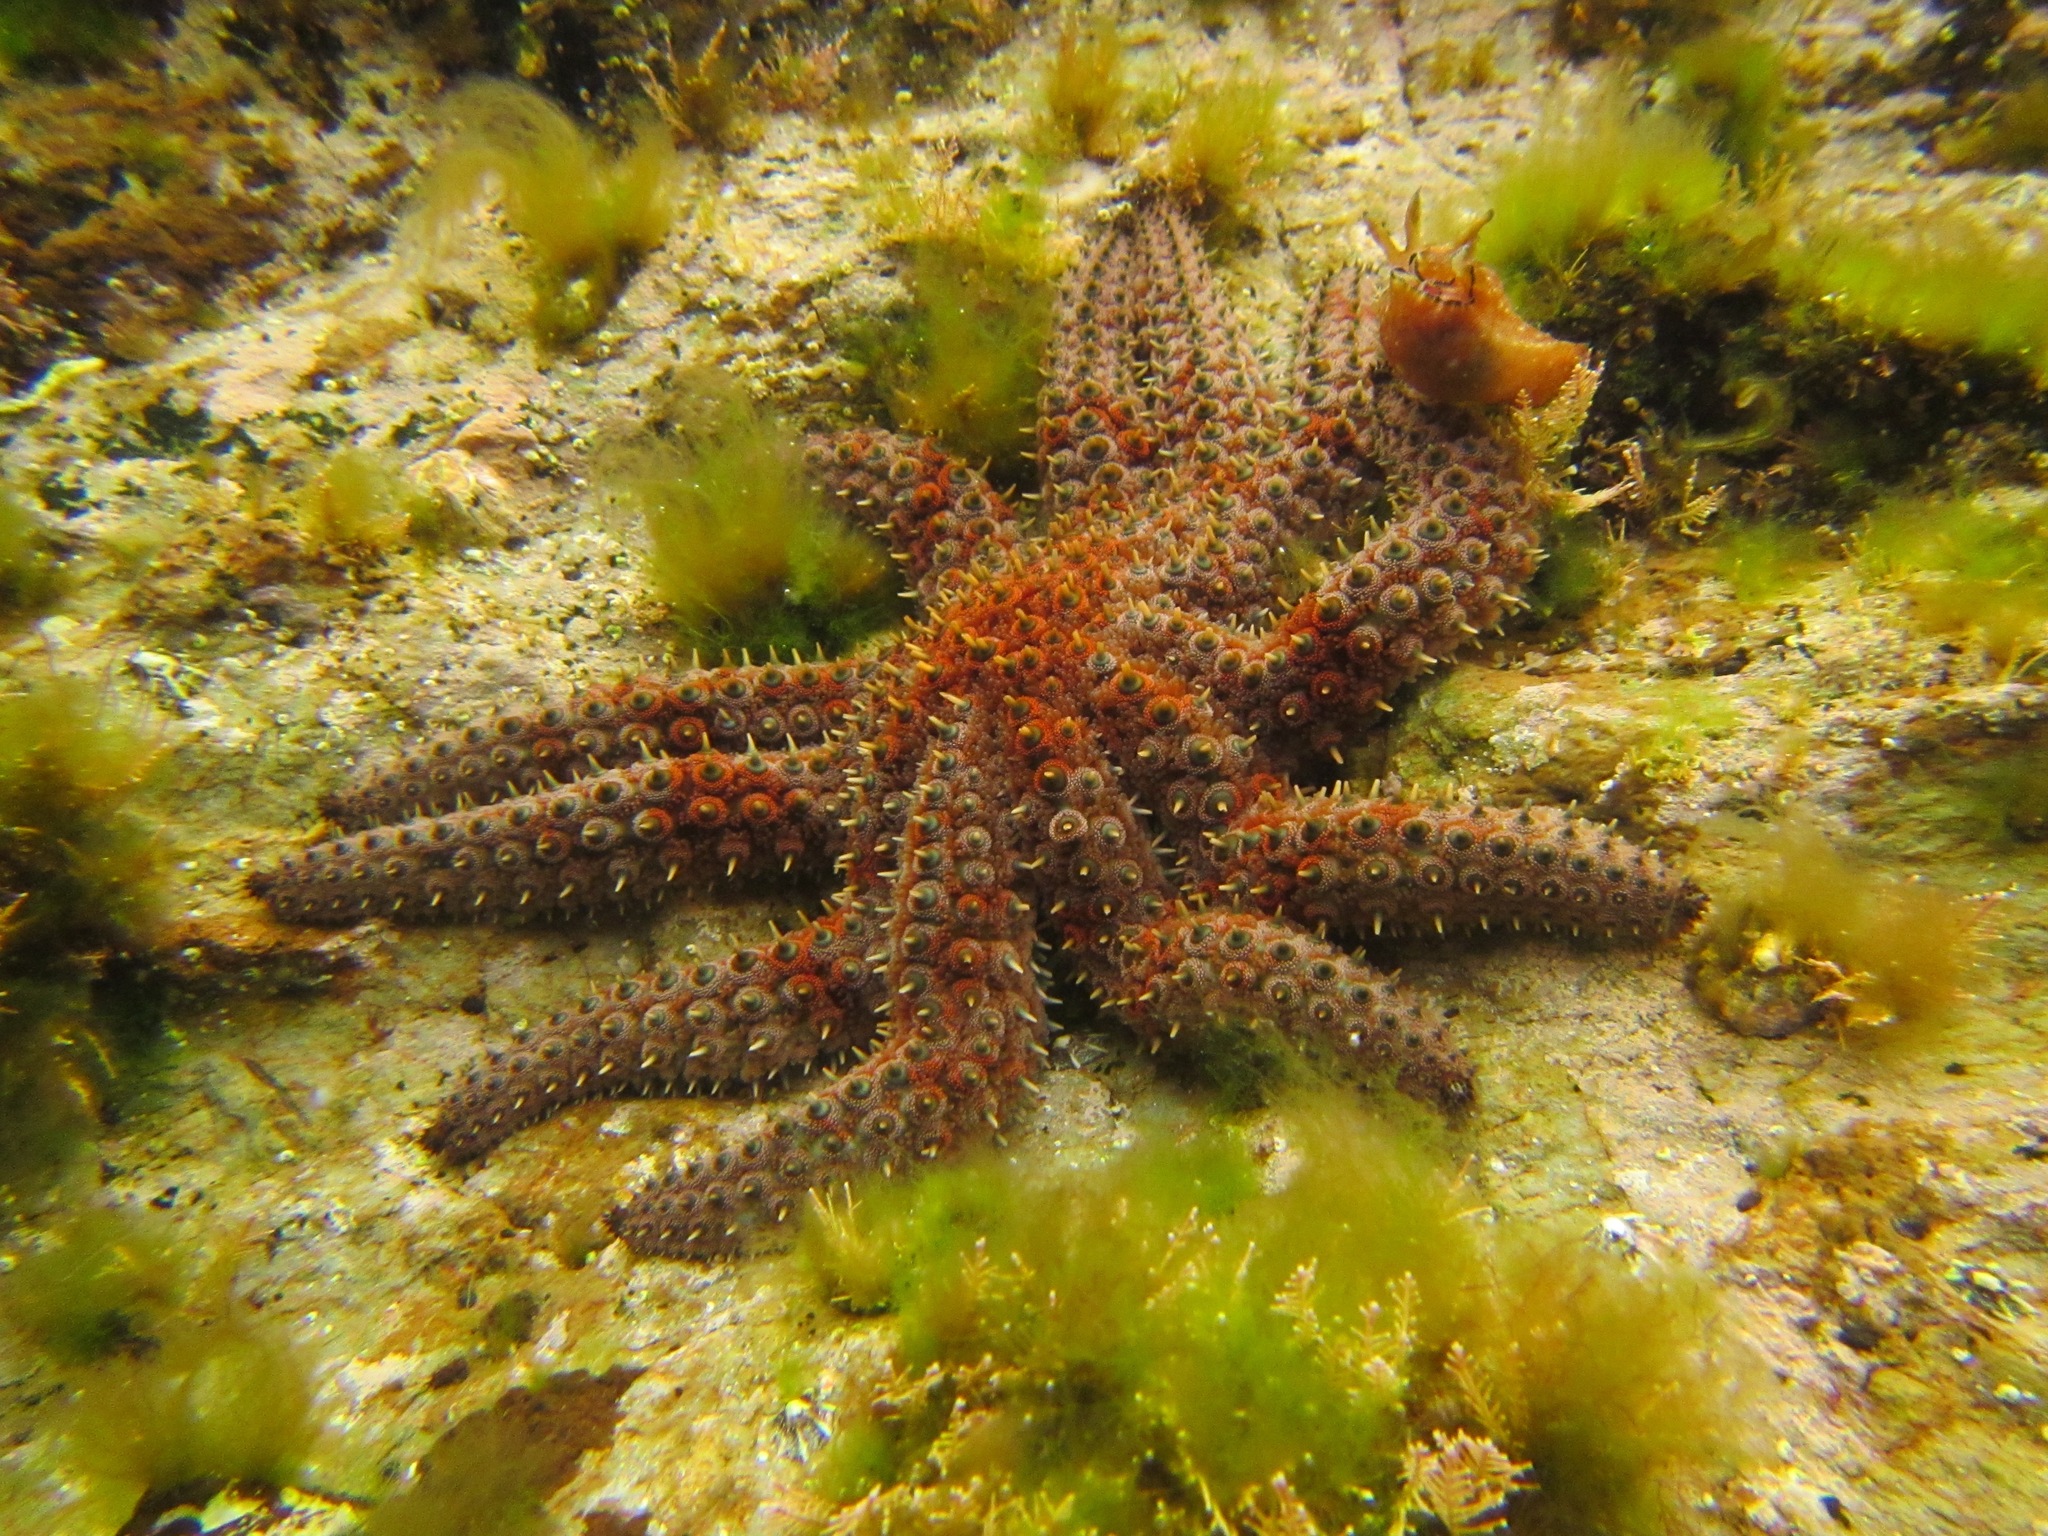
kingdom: Animalia
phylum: Echinodermata
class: Asteroidea
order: Forcipulatida
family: Asteriidae
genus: Coscinasterias
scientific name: Coscinasterias muricata
